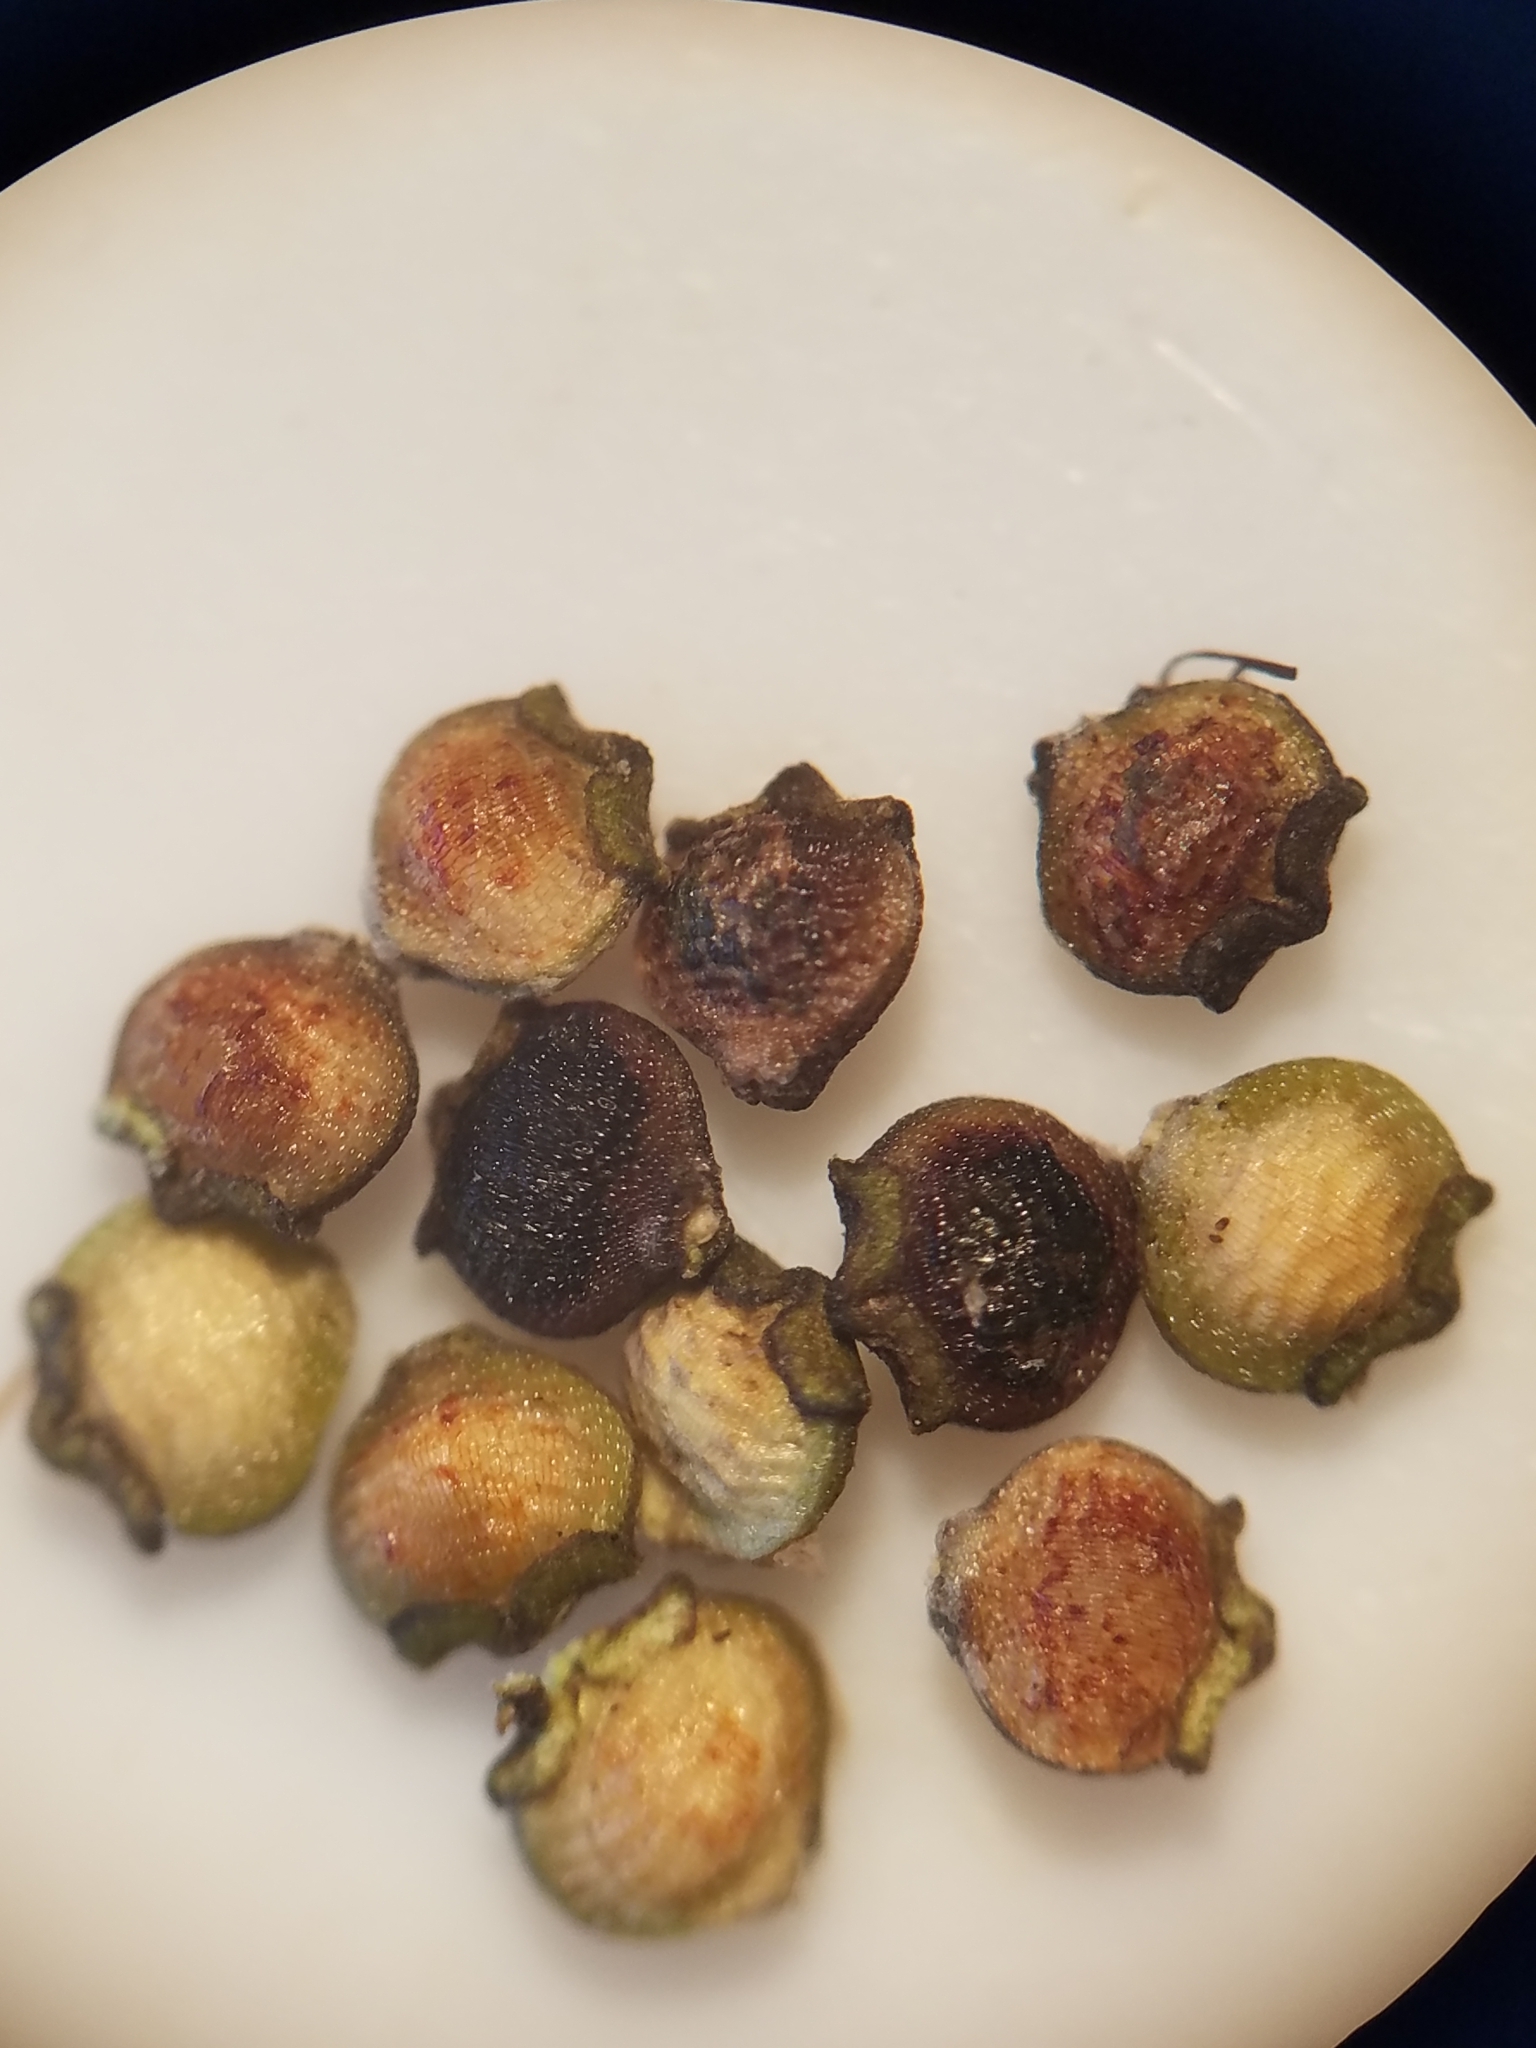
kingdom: Plantae
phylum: Tracheophyta
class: Liliopsida
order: Poales
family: Cyperaceae
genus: Rhynchospora
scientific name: Rhynchospora eximia
